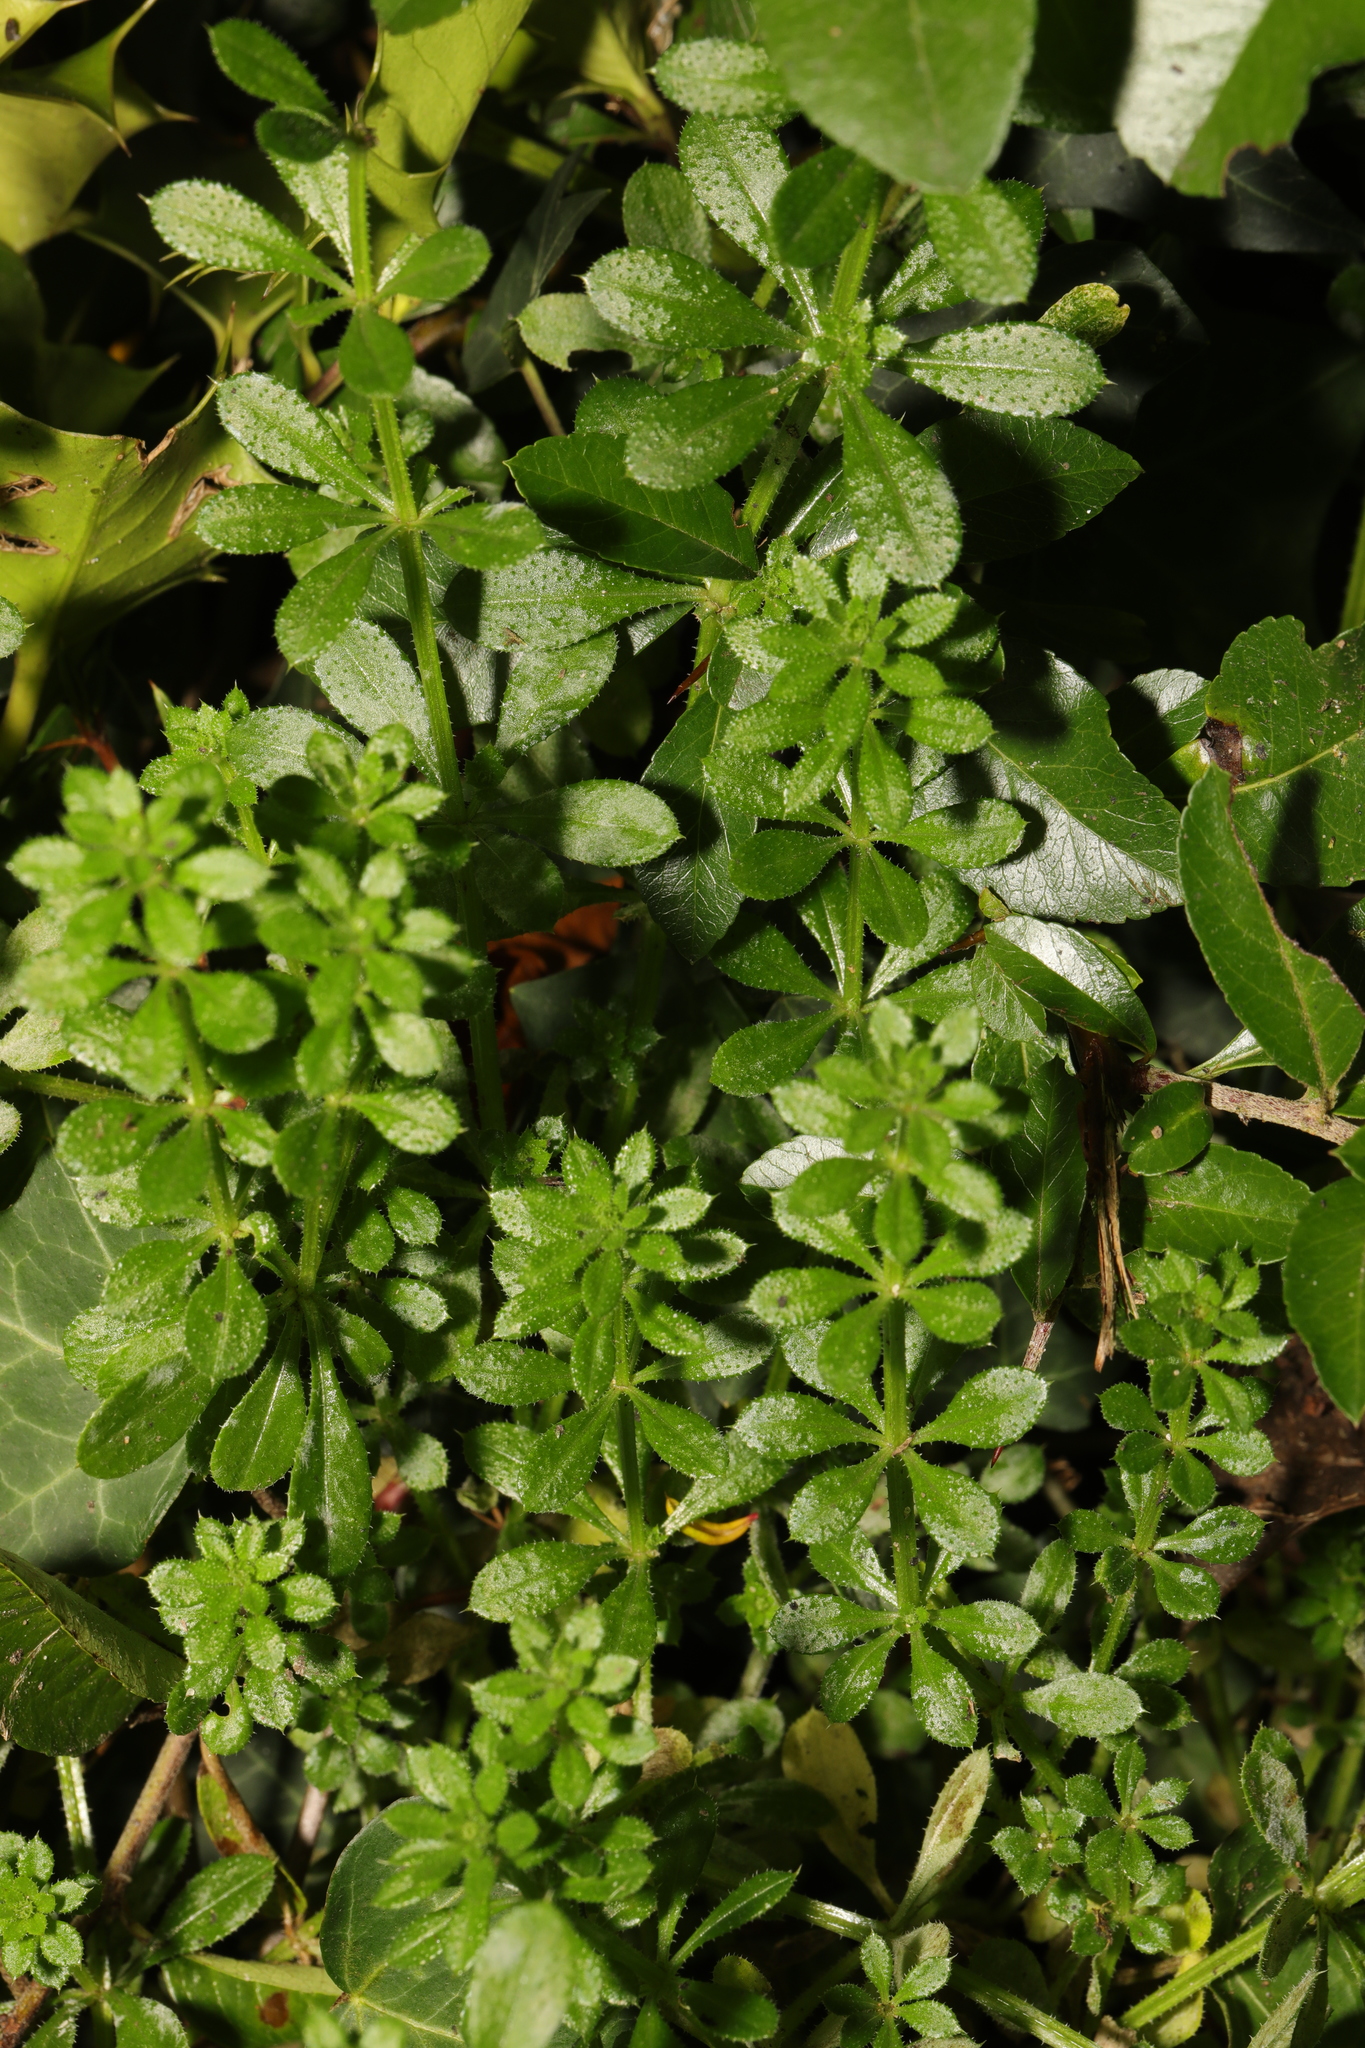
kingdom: Plantae
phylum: Tracheophyta
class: Magnoliopsida
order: Gentianales
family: Rubiaceae
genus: Galium
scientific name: Galium aparine
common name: Cleavers
